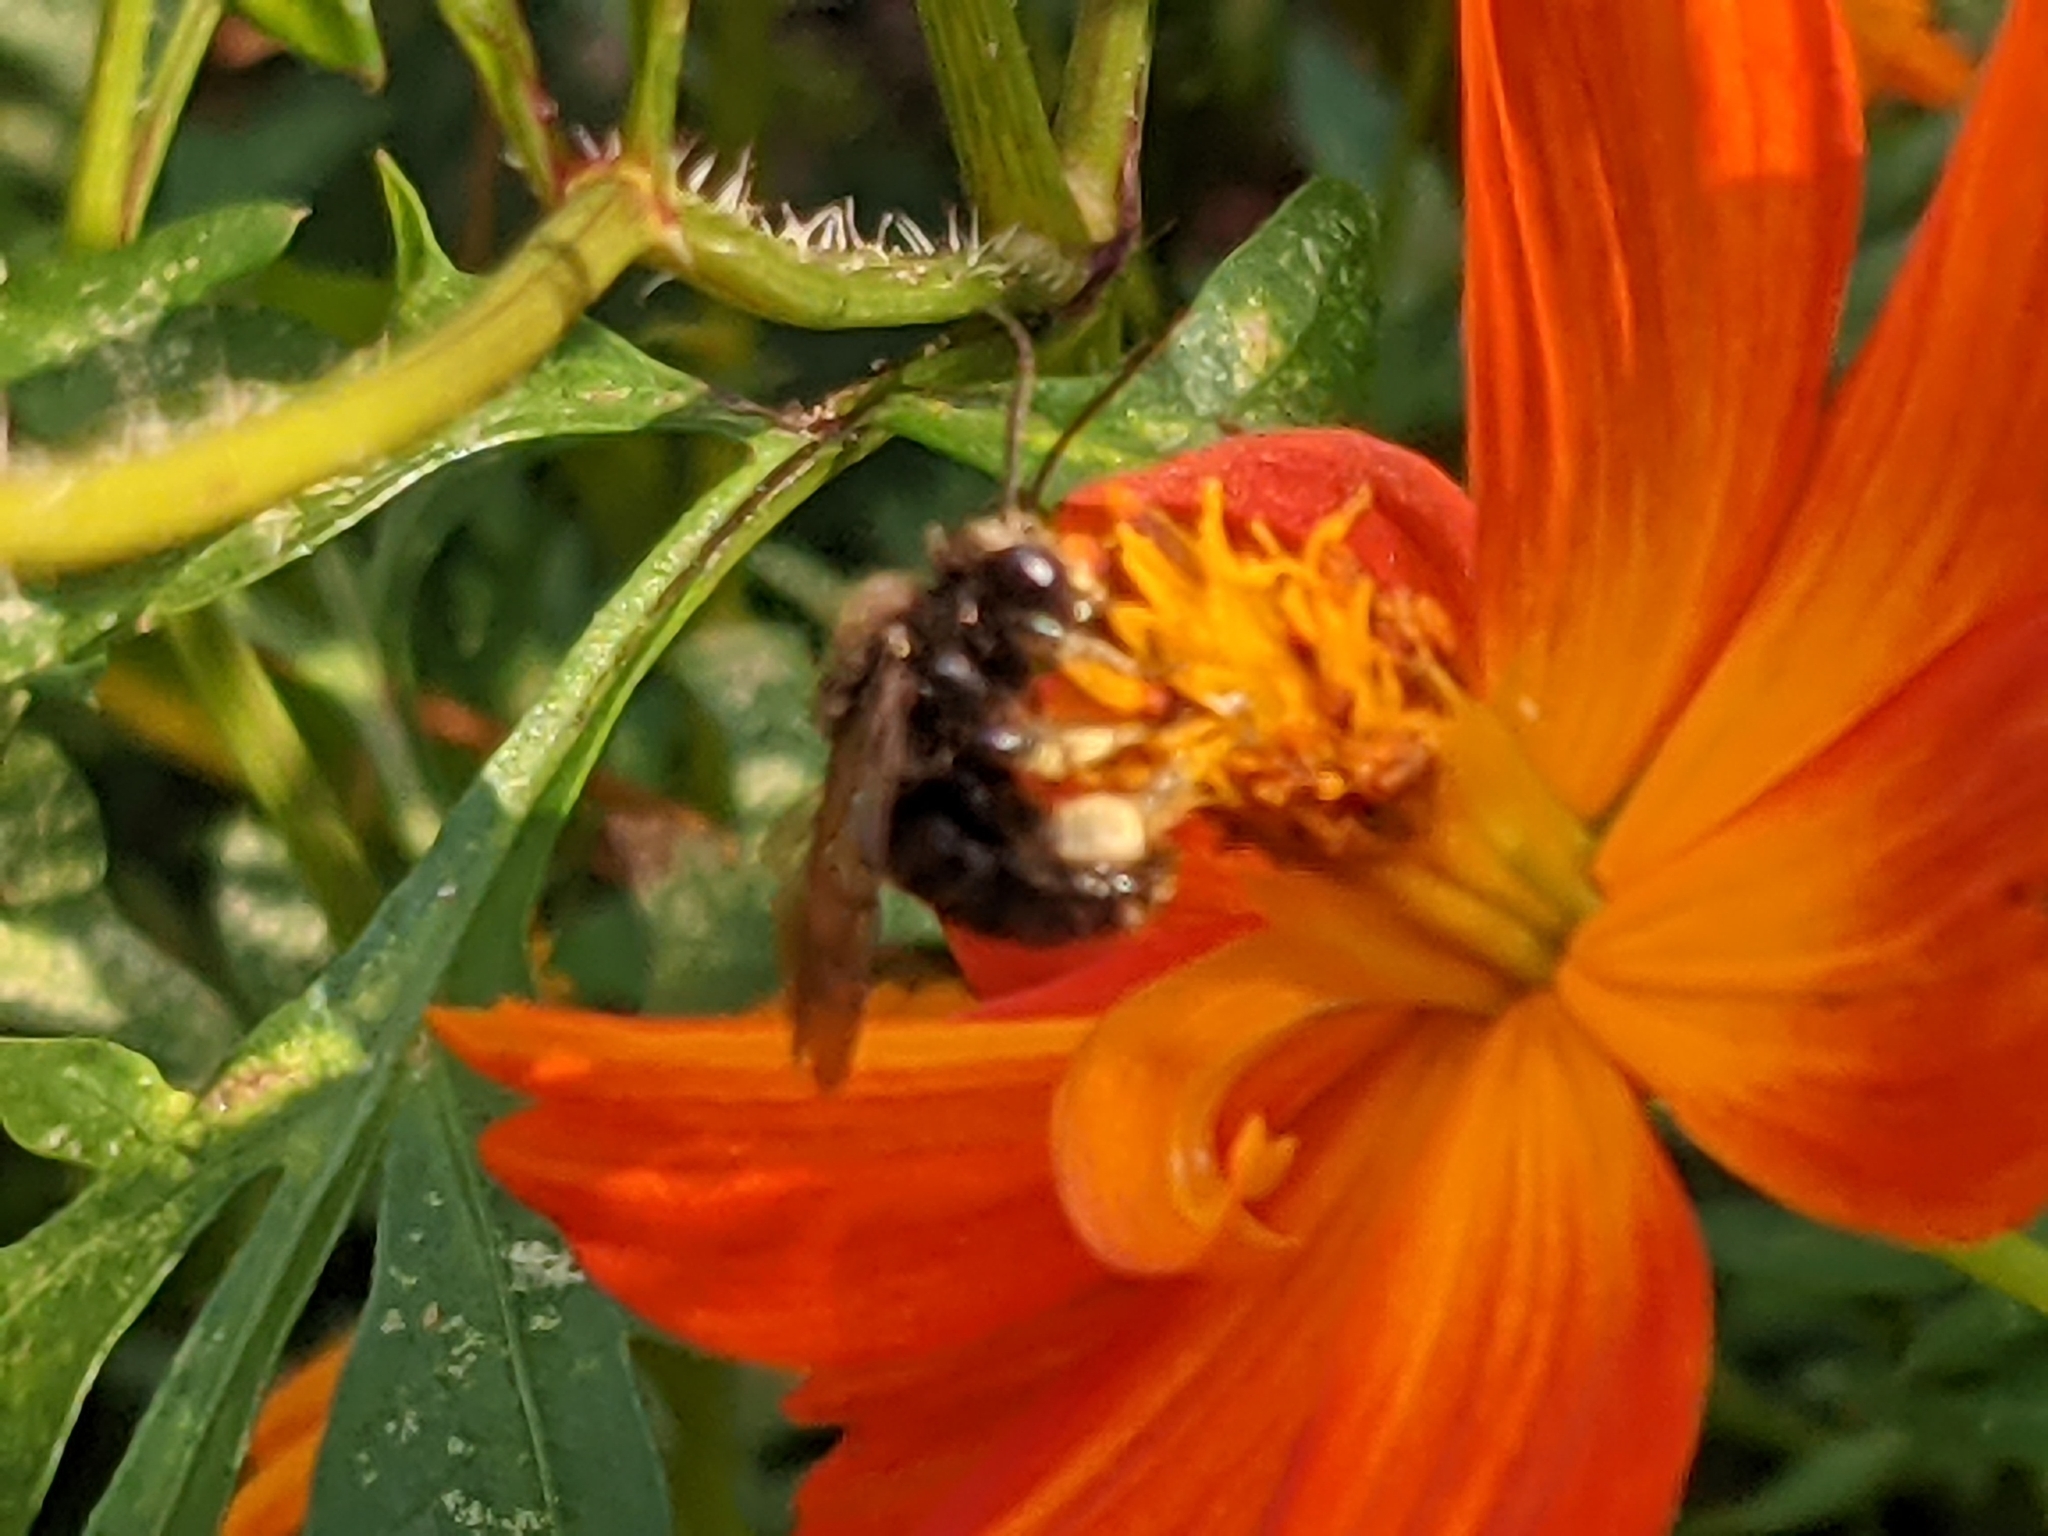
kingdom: Animalia
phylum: Arthropoda
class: Insecta
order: Hymenoptera
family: Apidae
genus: Melissodes
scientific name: Melissodes bimaculatus
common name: Two-spotted long-horned bee
